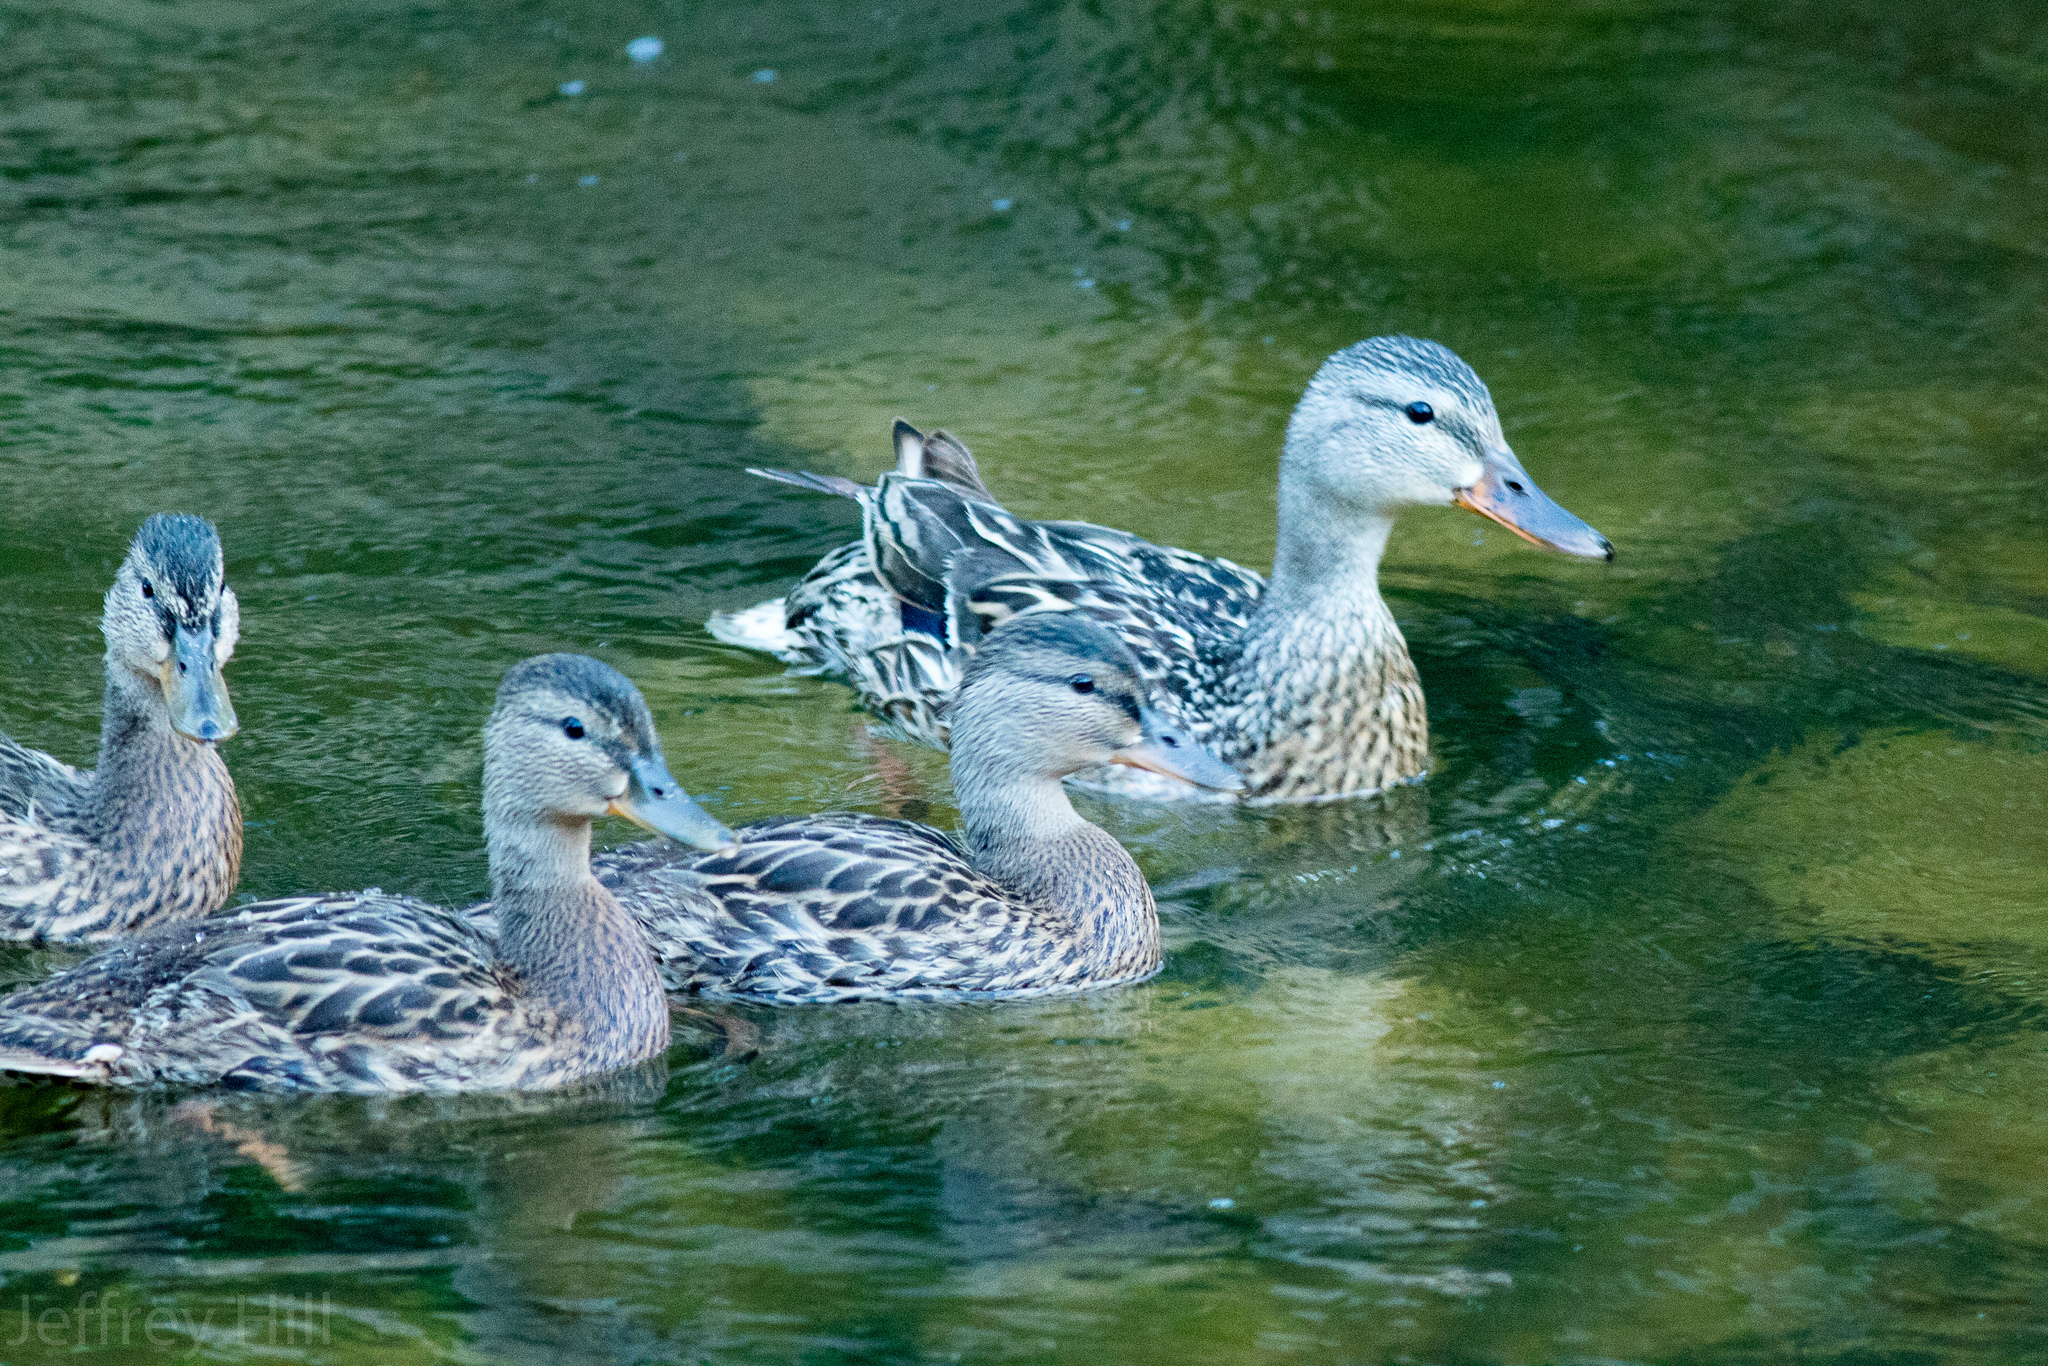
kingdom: Animalia
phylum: Chordata
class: Aves
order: Anseriformes
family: Anatidae
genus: Anas
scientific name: Anas platyrhynchos
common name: Mallard
